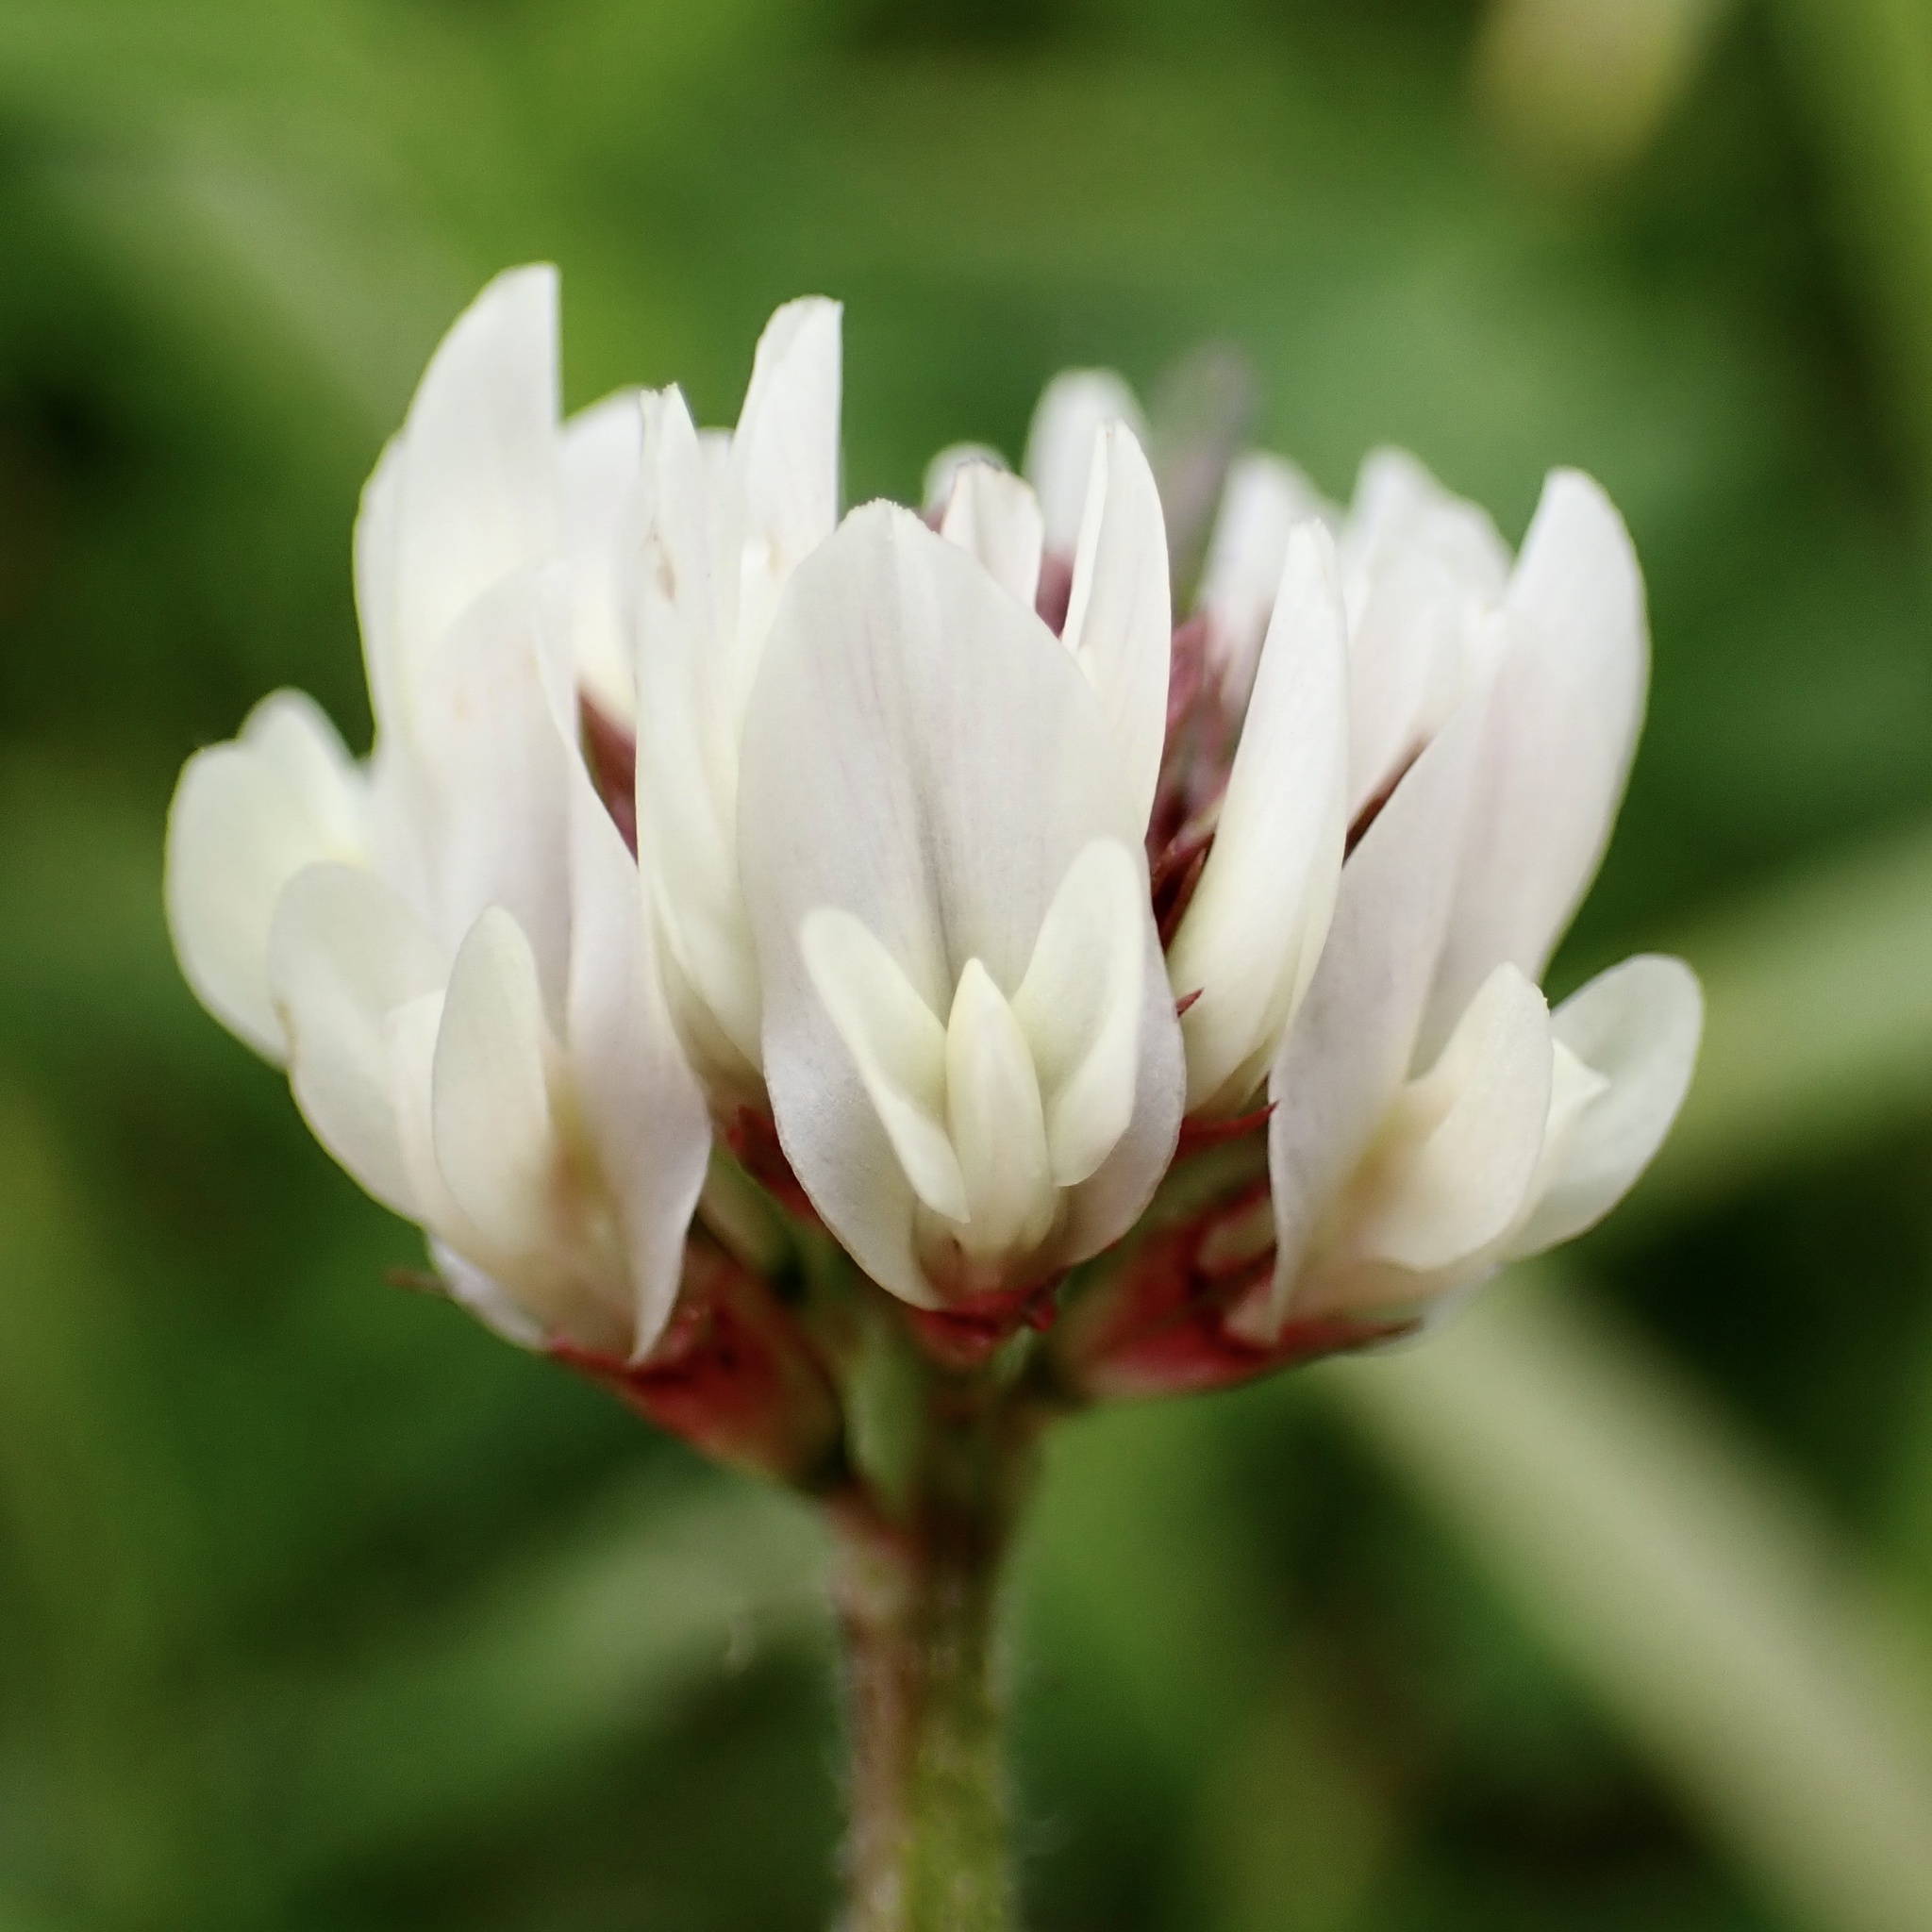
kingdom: Plantae
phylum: Tracheophyta
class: Magnoliopsida
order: Fabales
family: Fabaceae
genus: Trifolium
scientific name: Trifolium repens
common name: White clover
